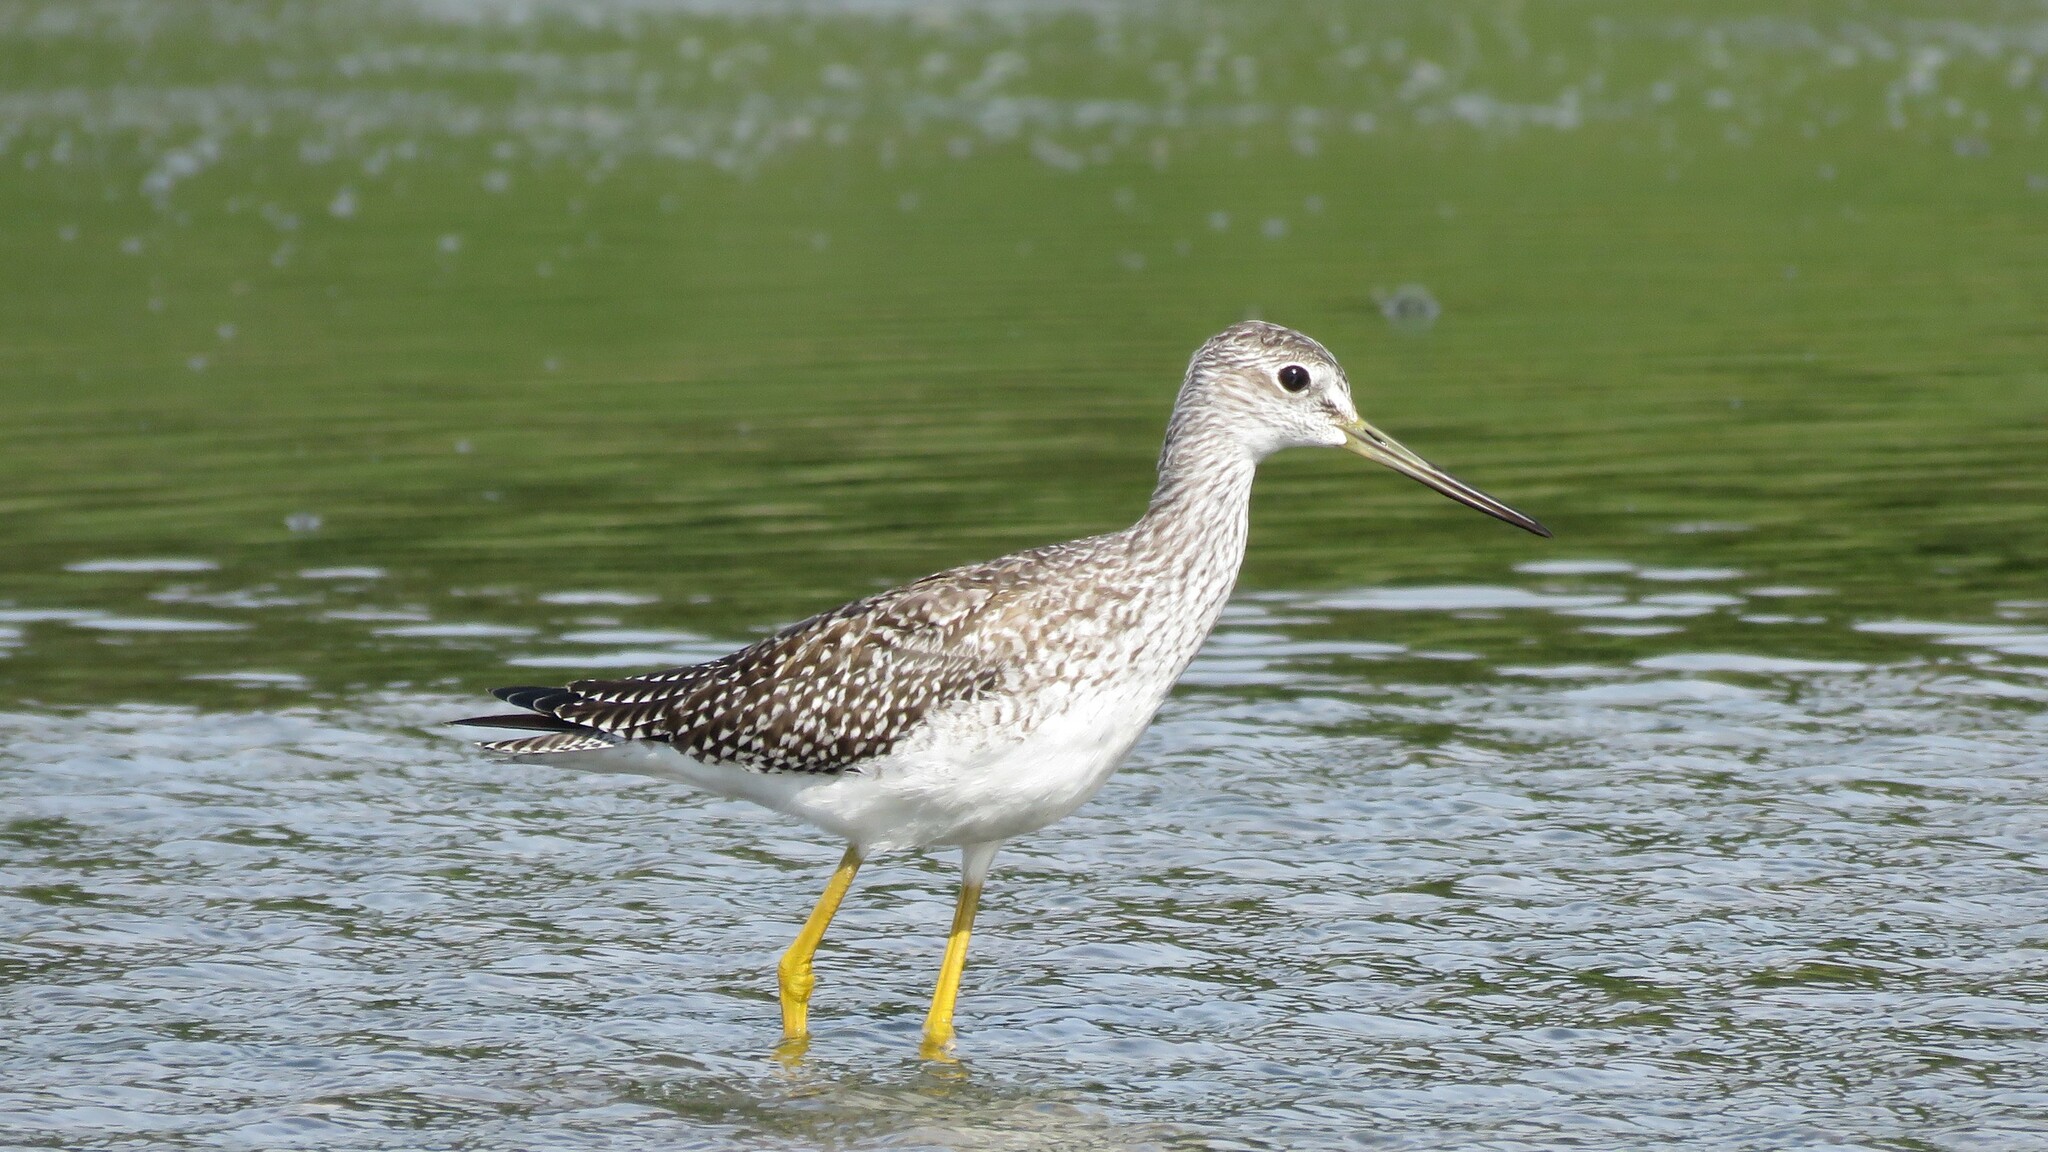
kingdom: Animalia
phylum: Chordata
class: Aves
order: Charadriiformes
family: Scolopacidae
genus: Tringa
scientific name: Tringa melanoleuca
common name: Greater yellowlegs
